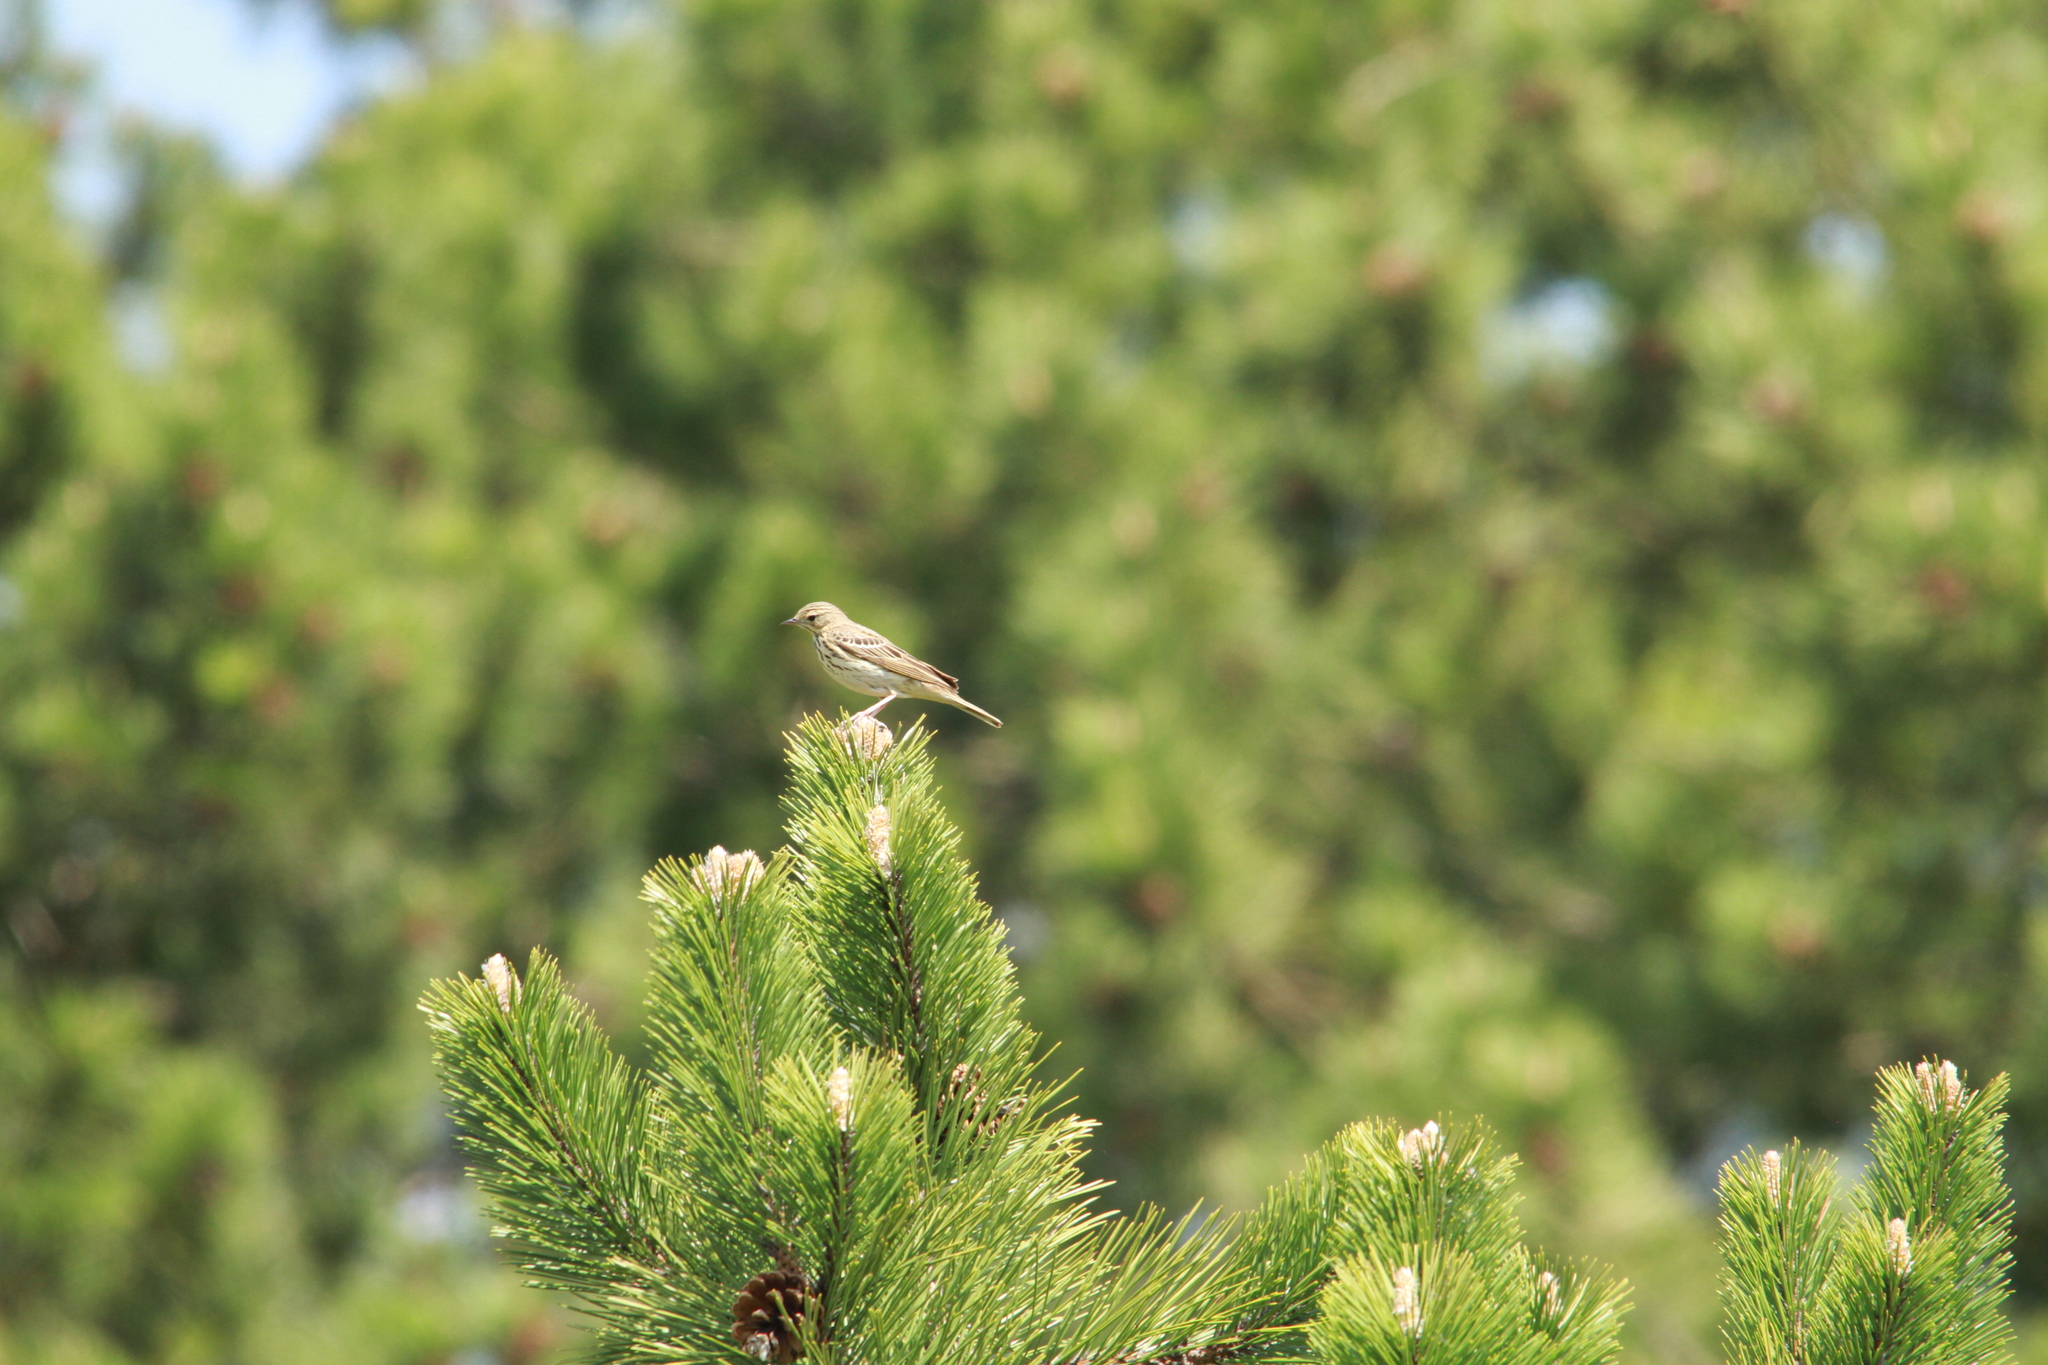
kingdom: Animalia
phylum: Chordata
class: Aves
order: Passeriformes
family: Motacillidae
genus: Anthus
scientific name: Anthus trivialis
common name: Tree pipit
